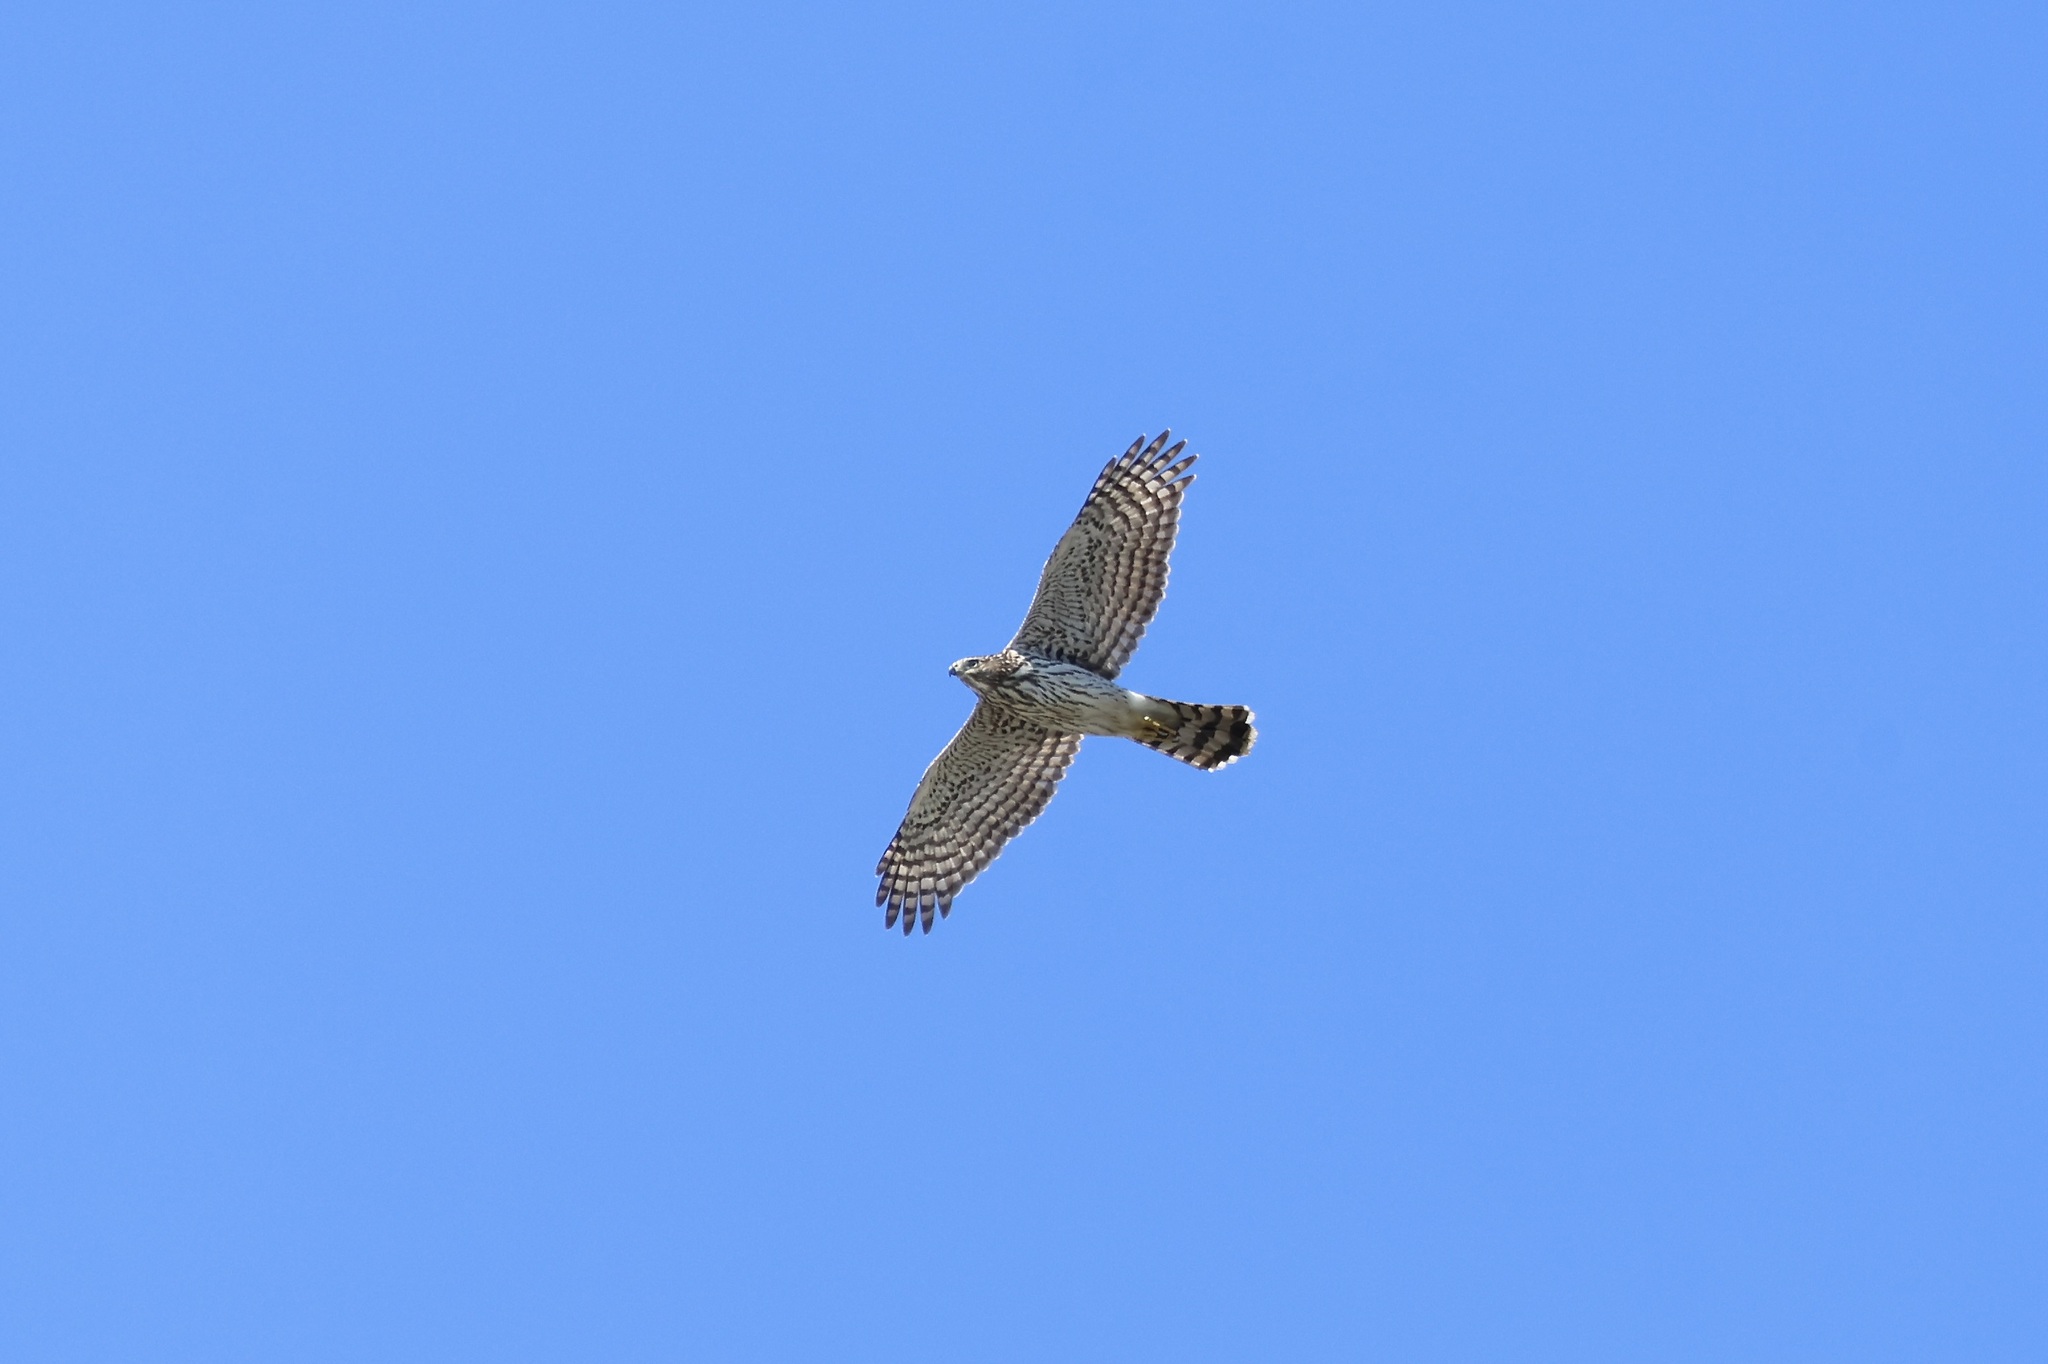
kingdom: Animalia
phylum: Chordata
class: Aves
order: Accipitriformes
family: Accipitridae
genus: Accipiter
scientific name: Accipiter cooperii
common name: Cooper's hawk
